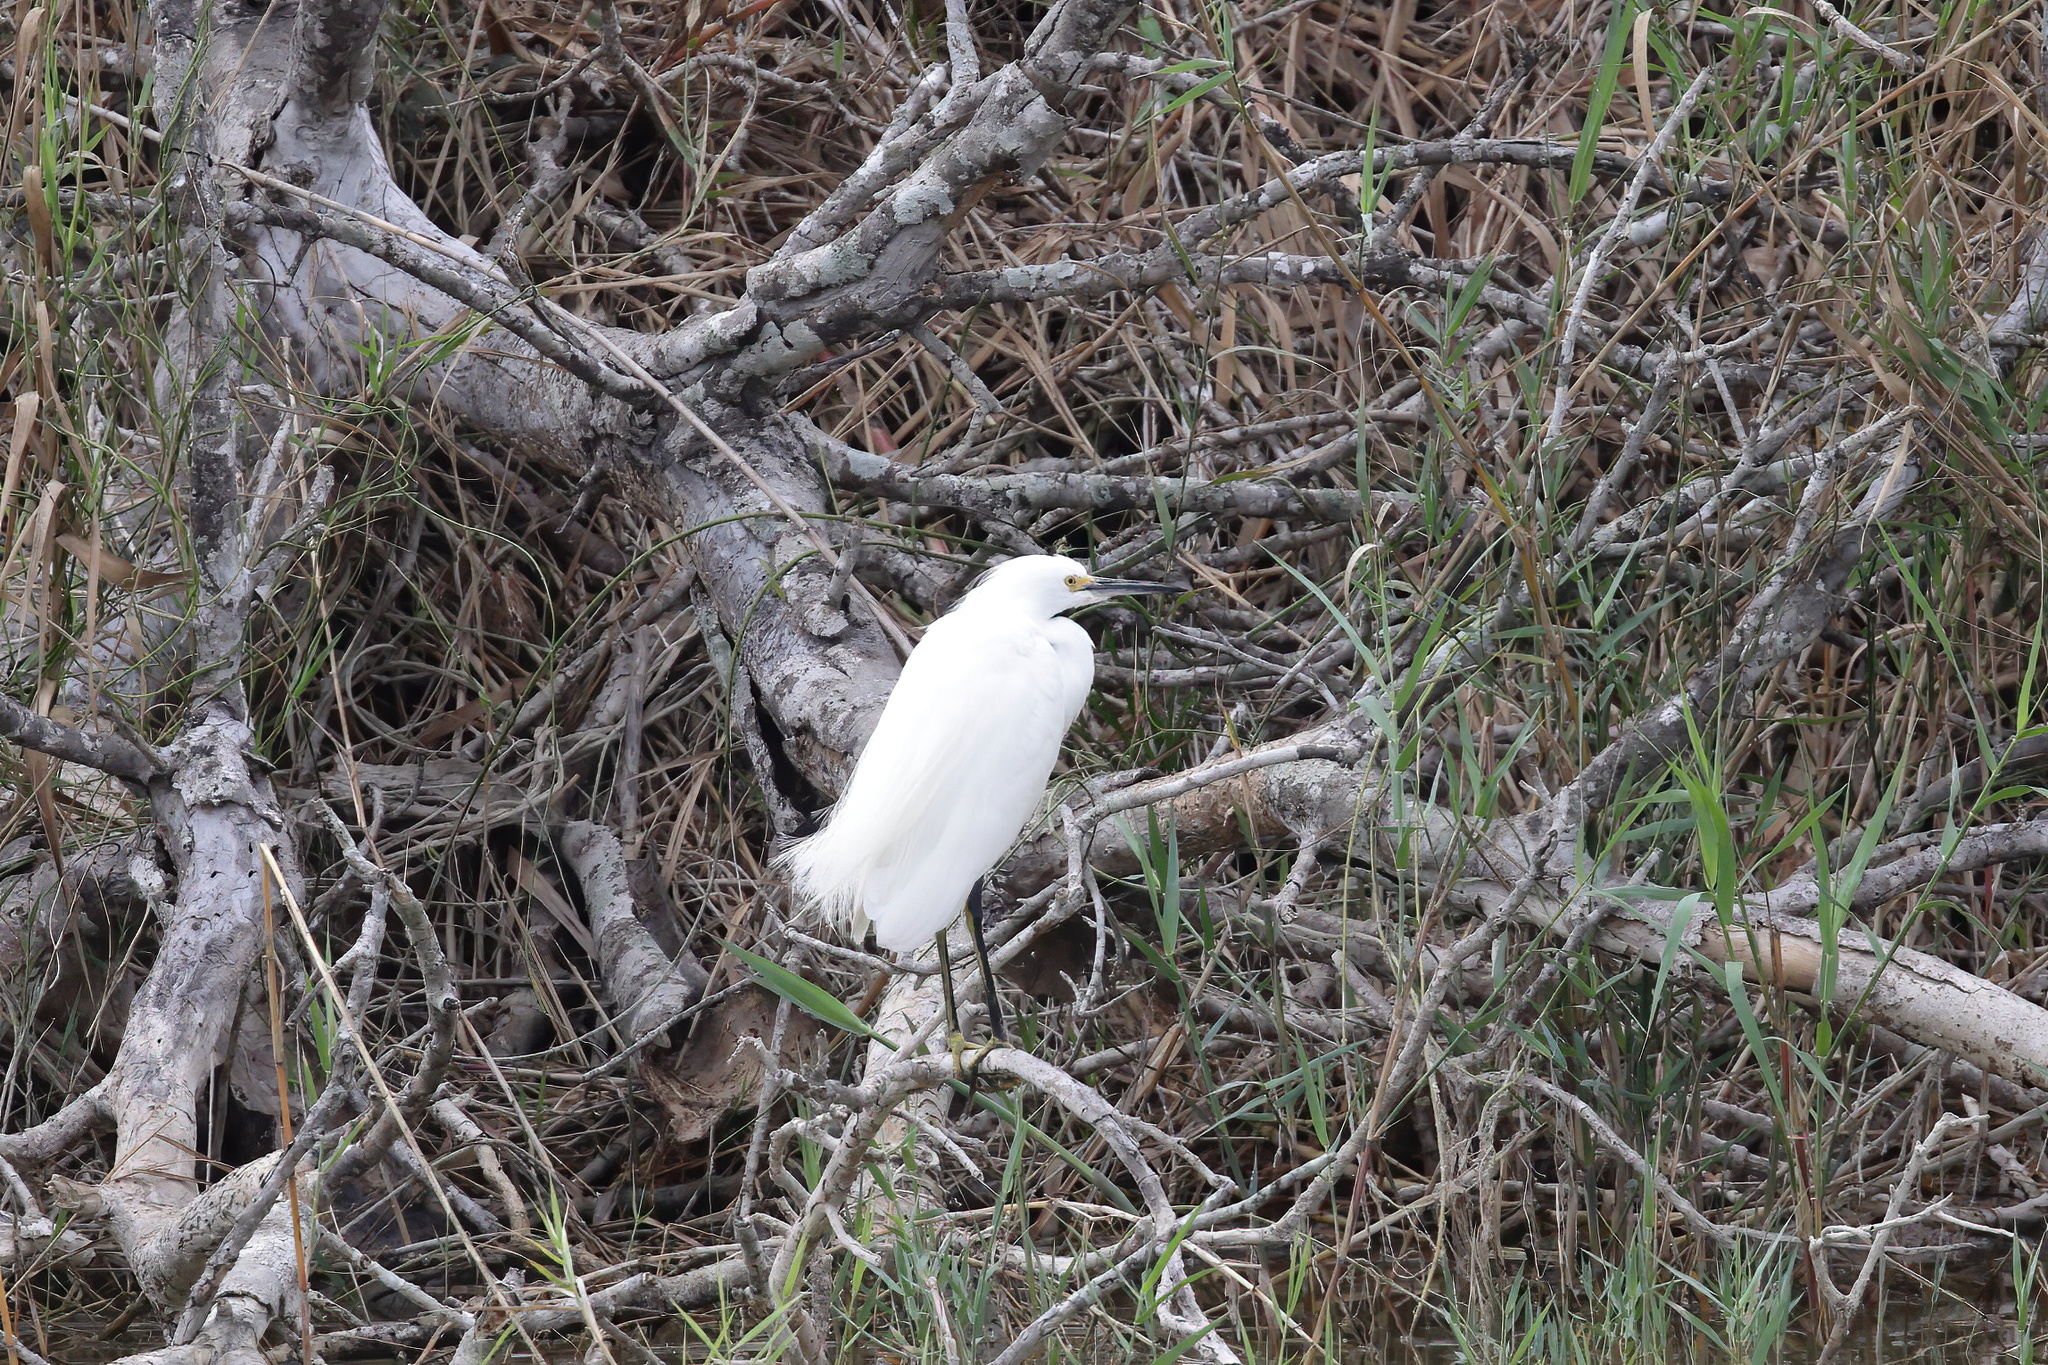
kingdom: Animalia
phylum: Chordata
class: Aves
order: Pelecaniformes
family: Ardeidae
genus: Egretta
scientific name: Egretta thula
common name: Snowy egret
